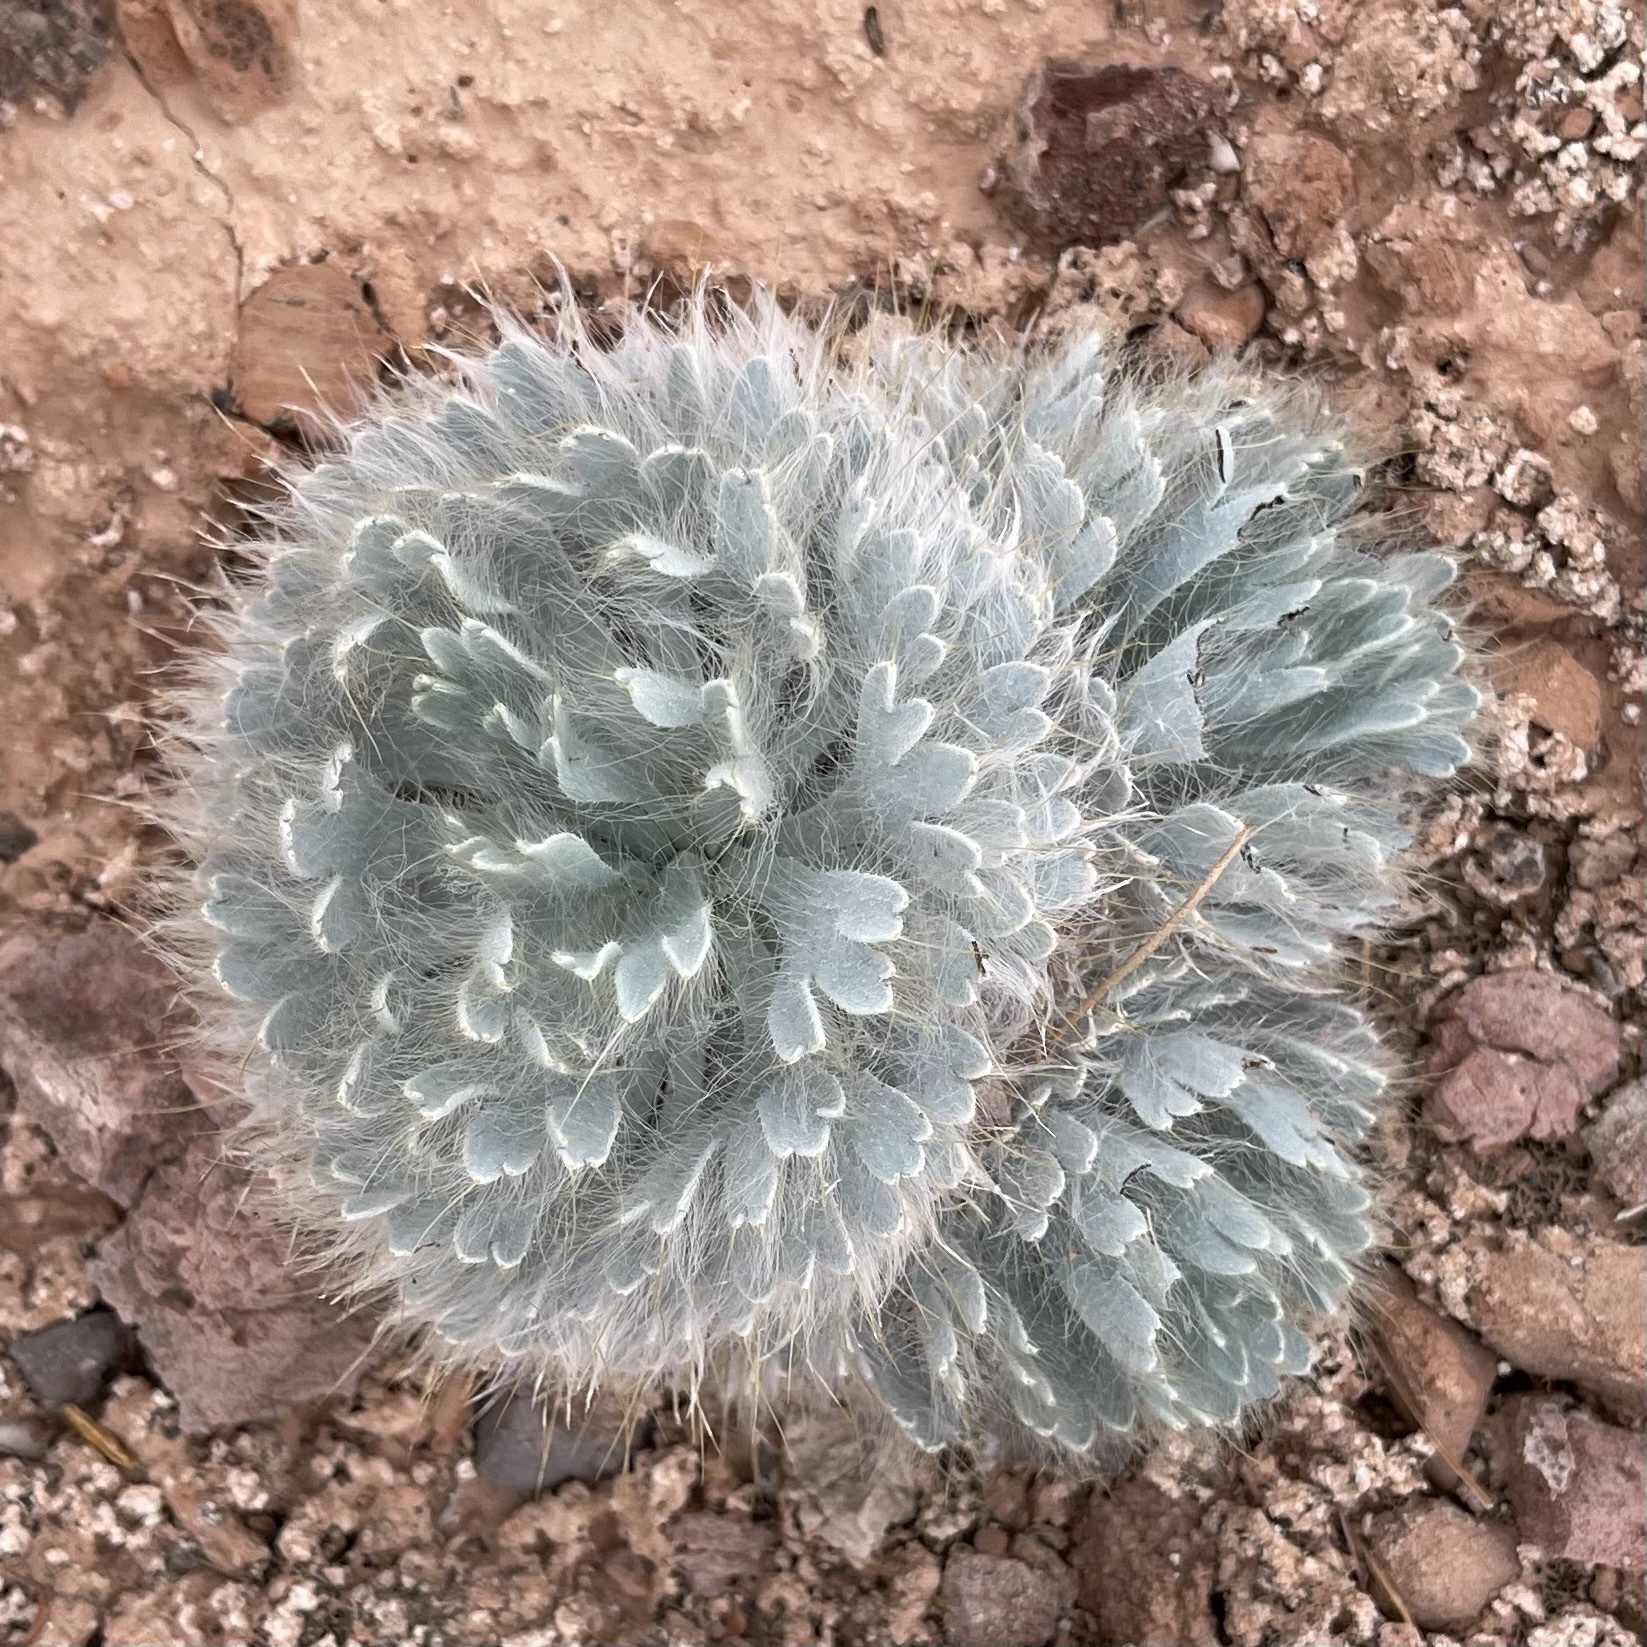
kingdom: Plantae
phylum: Tracheophyta
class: Magnoliopsida
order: Ranunculales
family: Papaveraceae
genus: Arctomecon
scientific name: Arctomecon californicum
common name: Golden bearclaw-poppy
